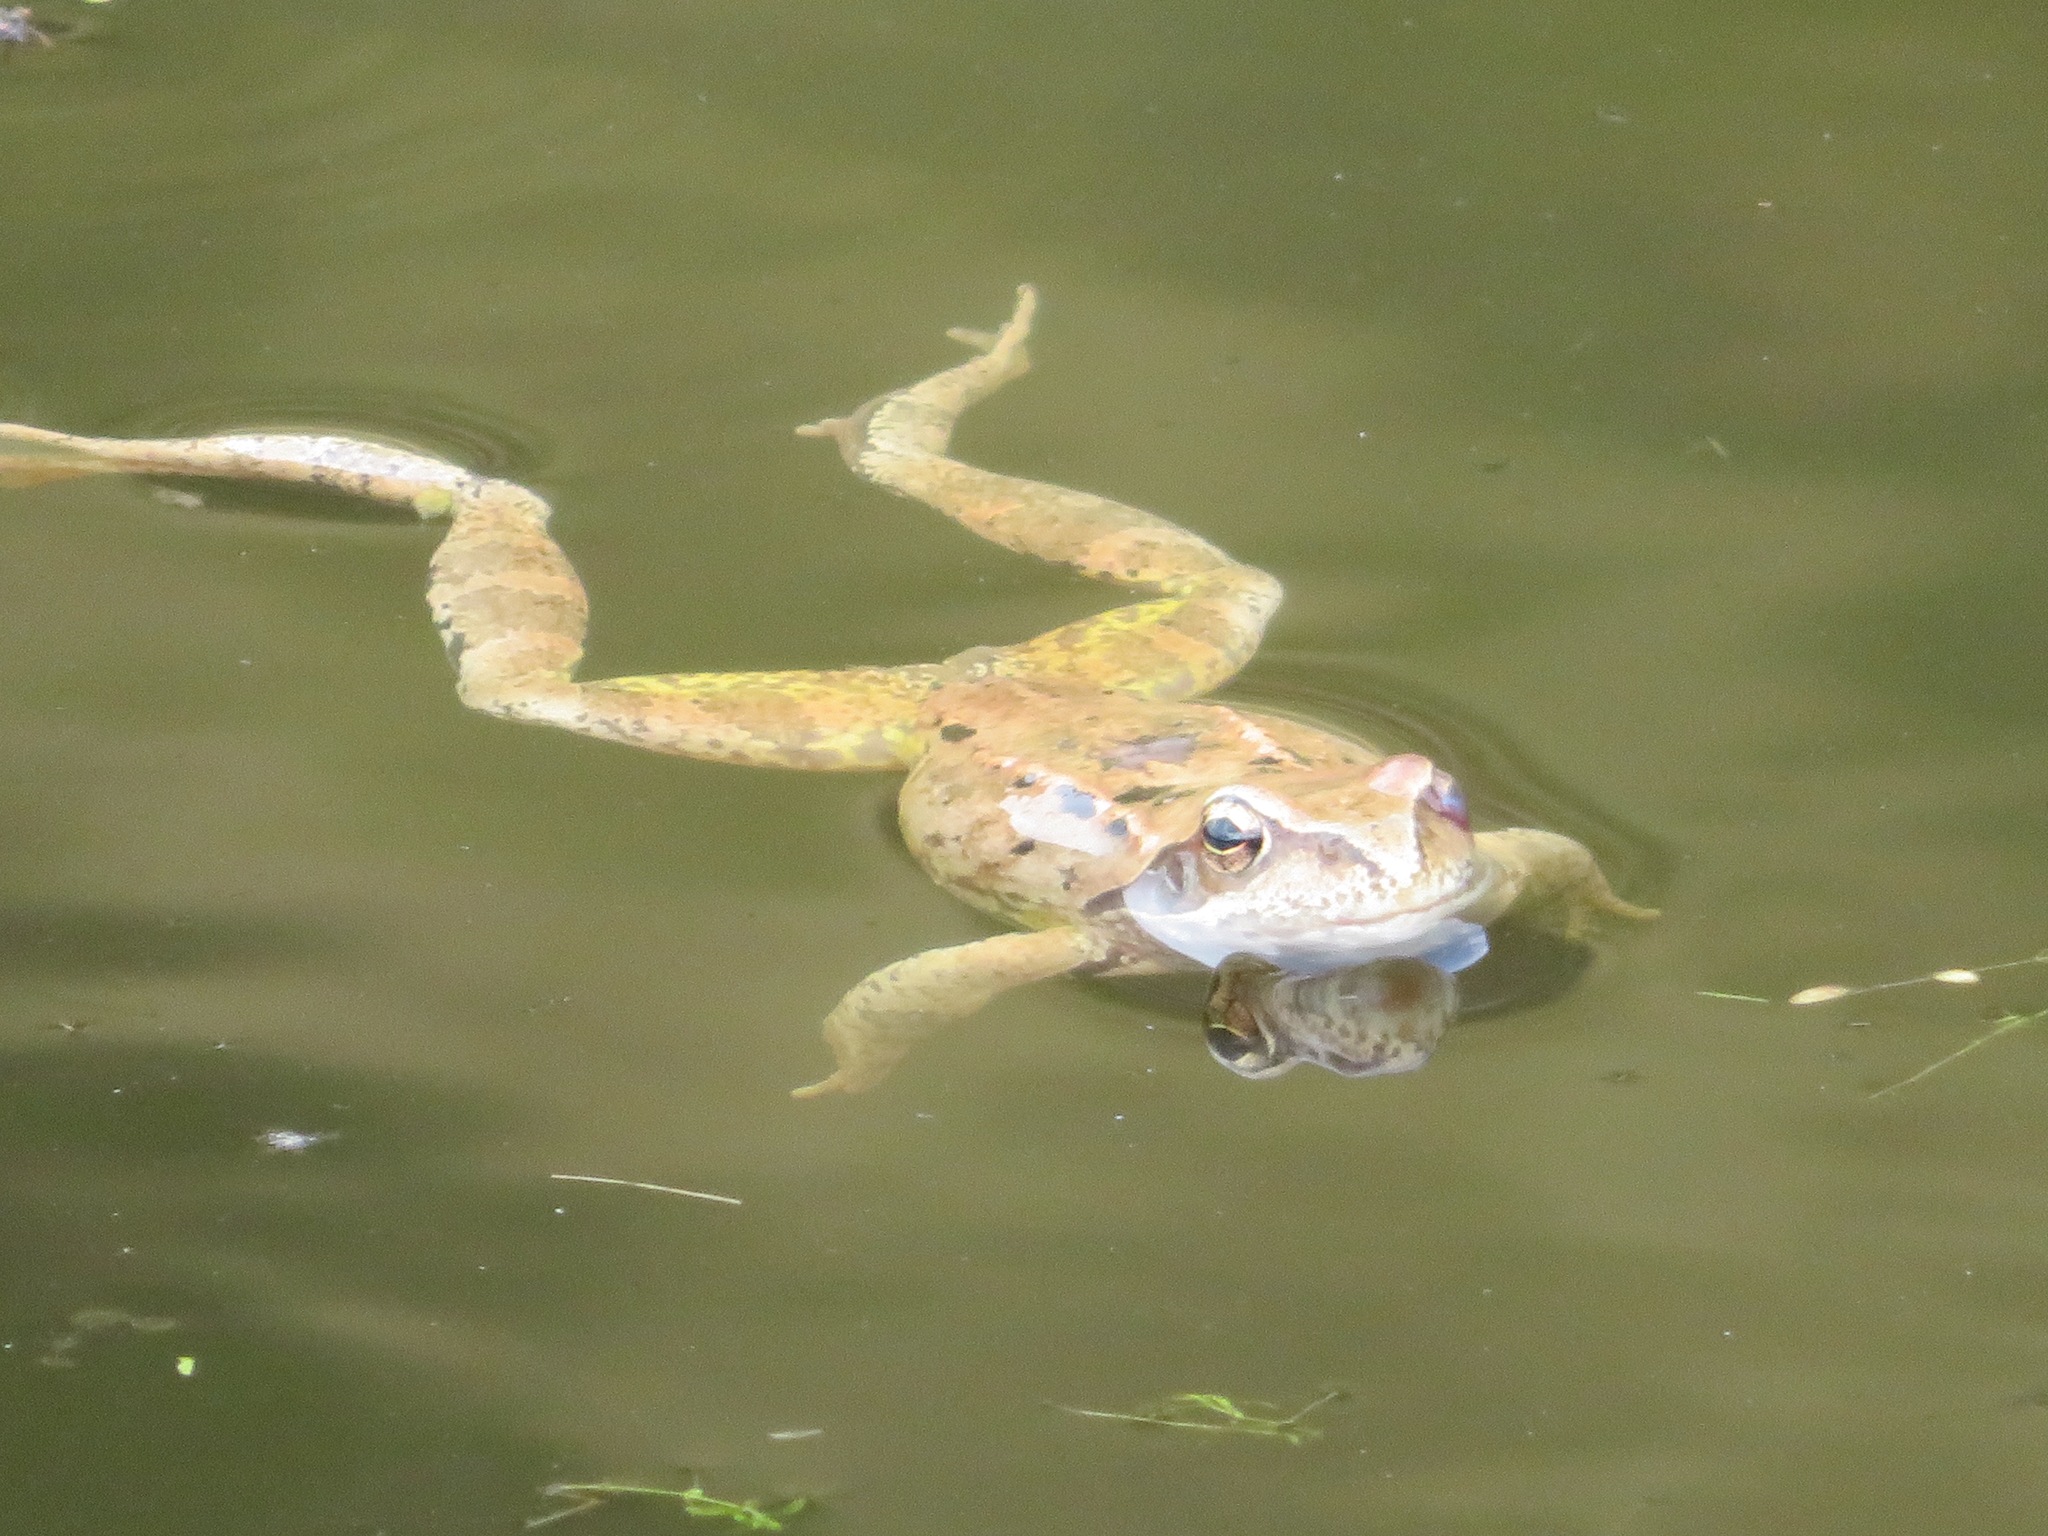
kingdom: Animalia
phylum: Chordata
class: Amphibia
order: Anura
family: Ranidae
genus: Rana
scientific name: Rana temporaria
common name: Common frog
